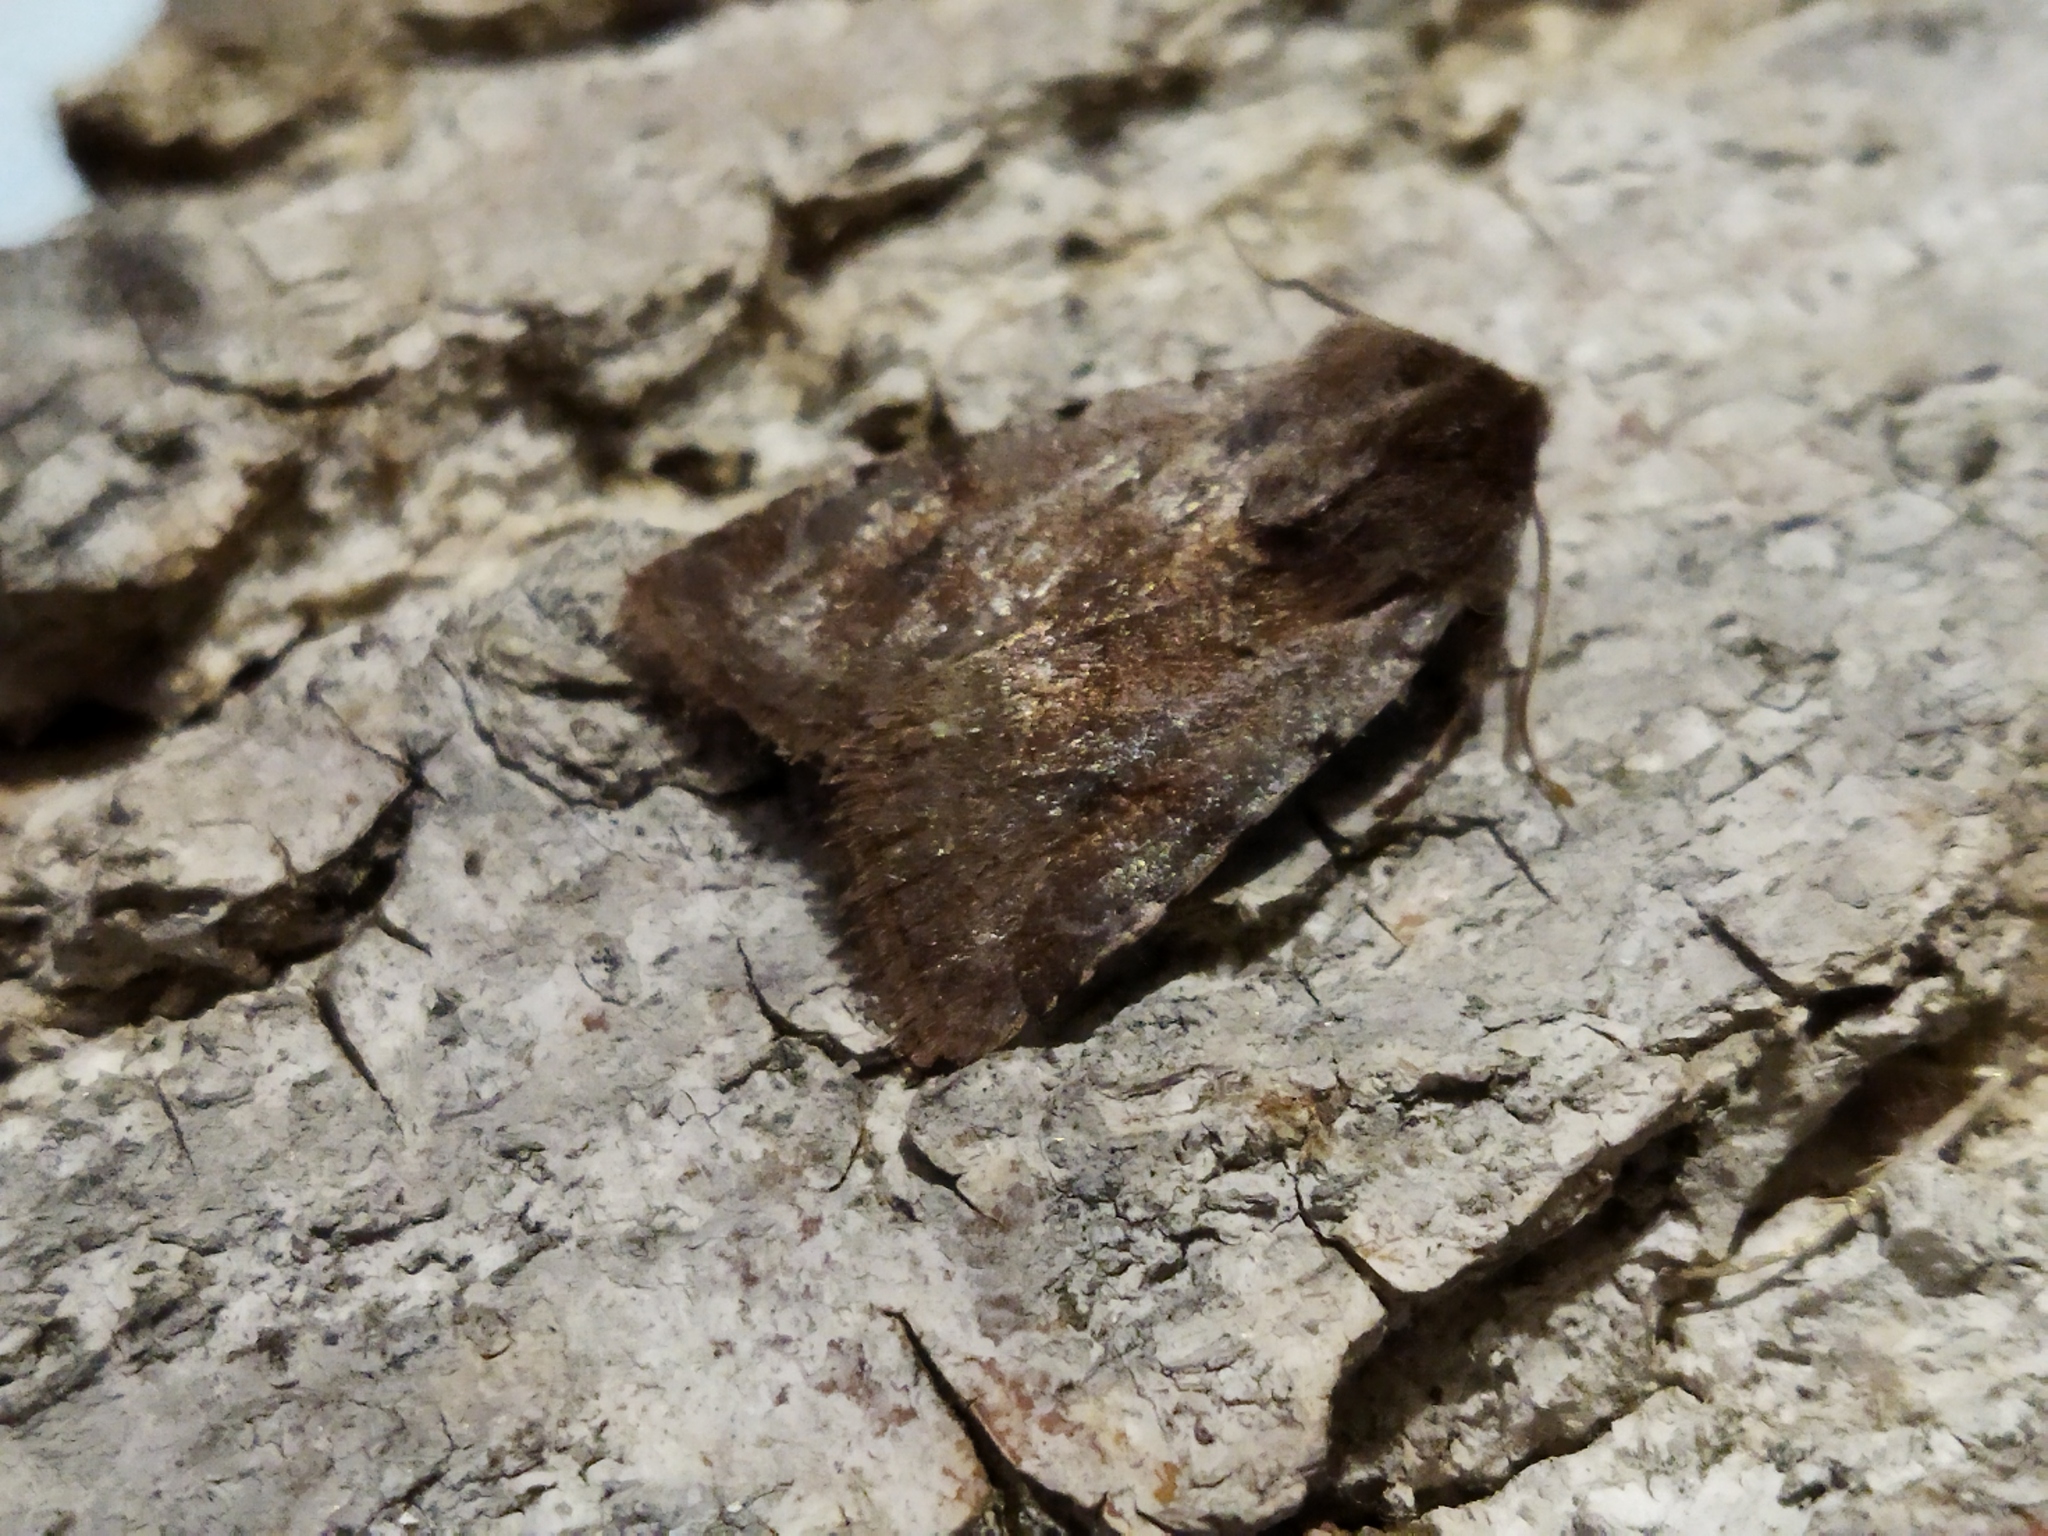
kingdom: Animalia
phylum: Arthropoda
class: Insecta
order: Lepidoptera
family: Noctuidae
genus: Cerastis
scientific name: Cerastis rubricosa
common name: Red chestnut
